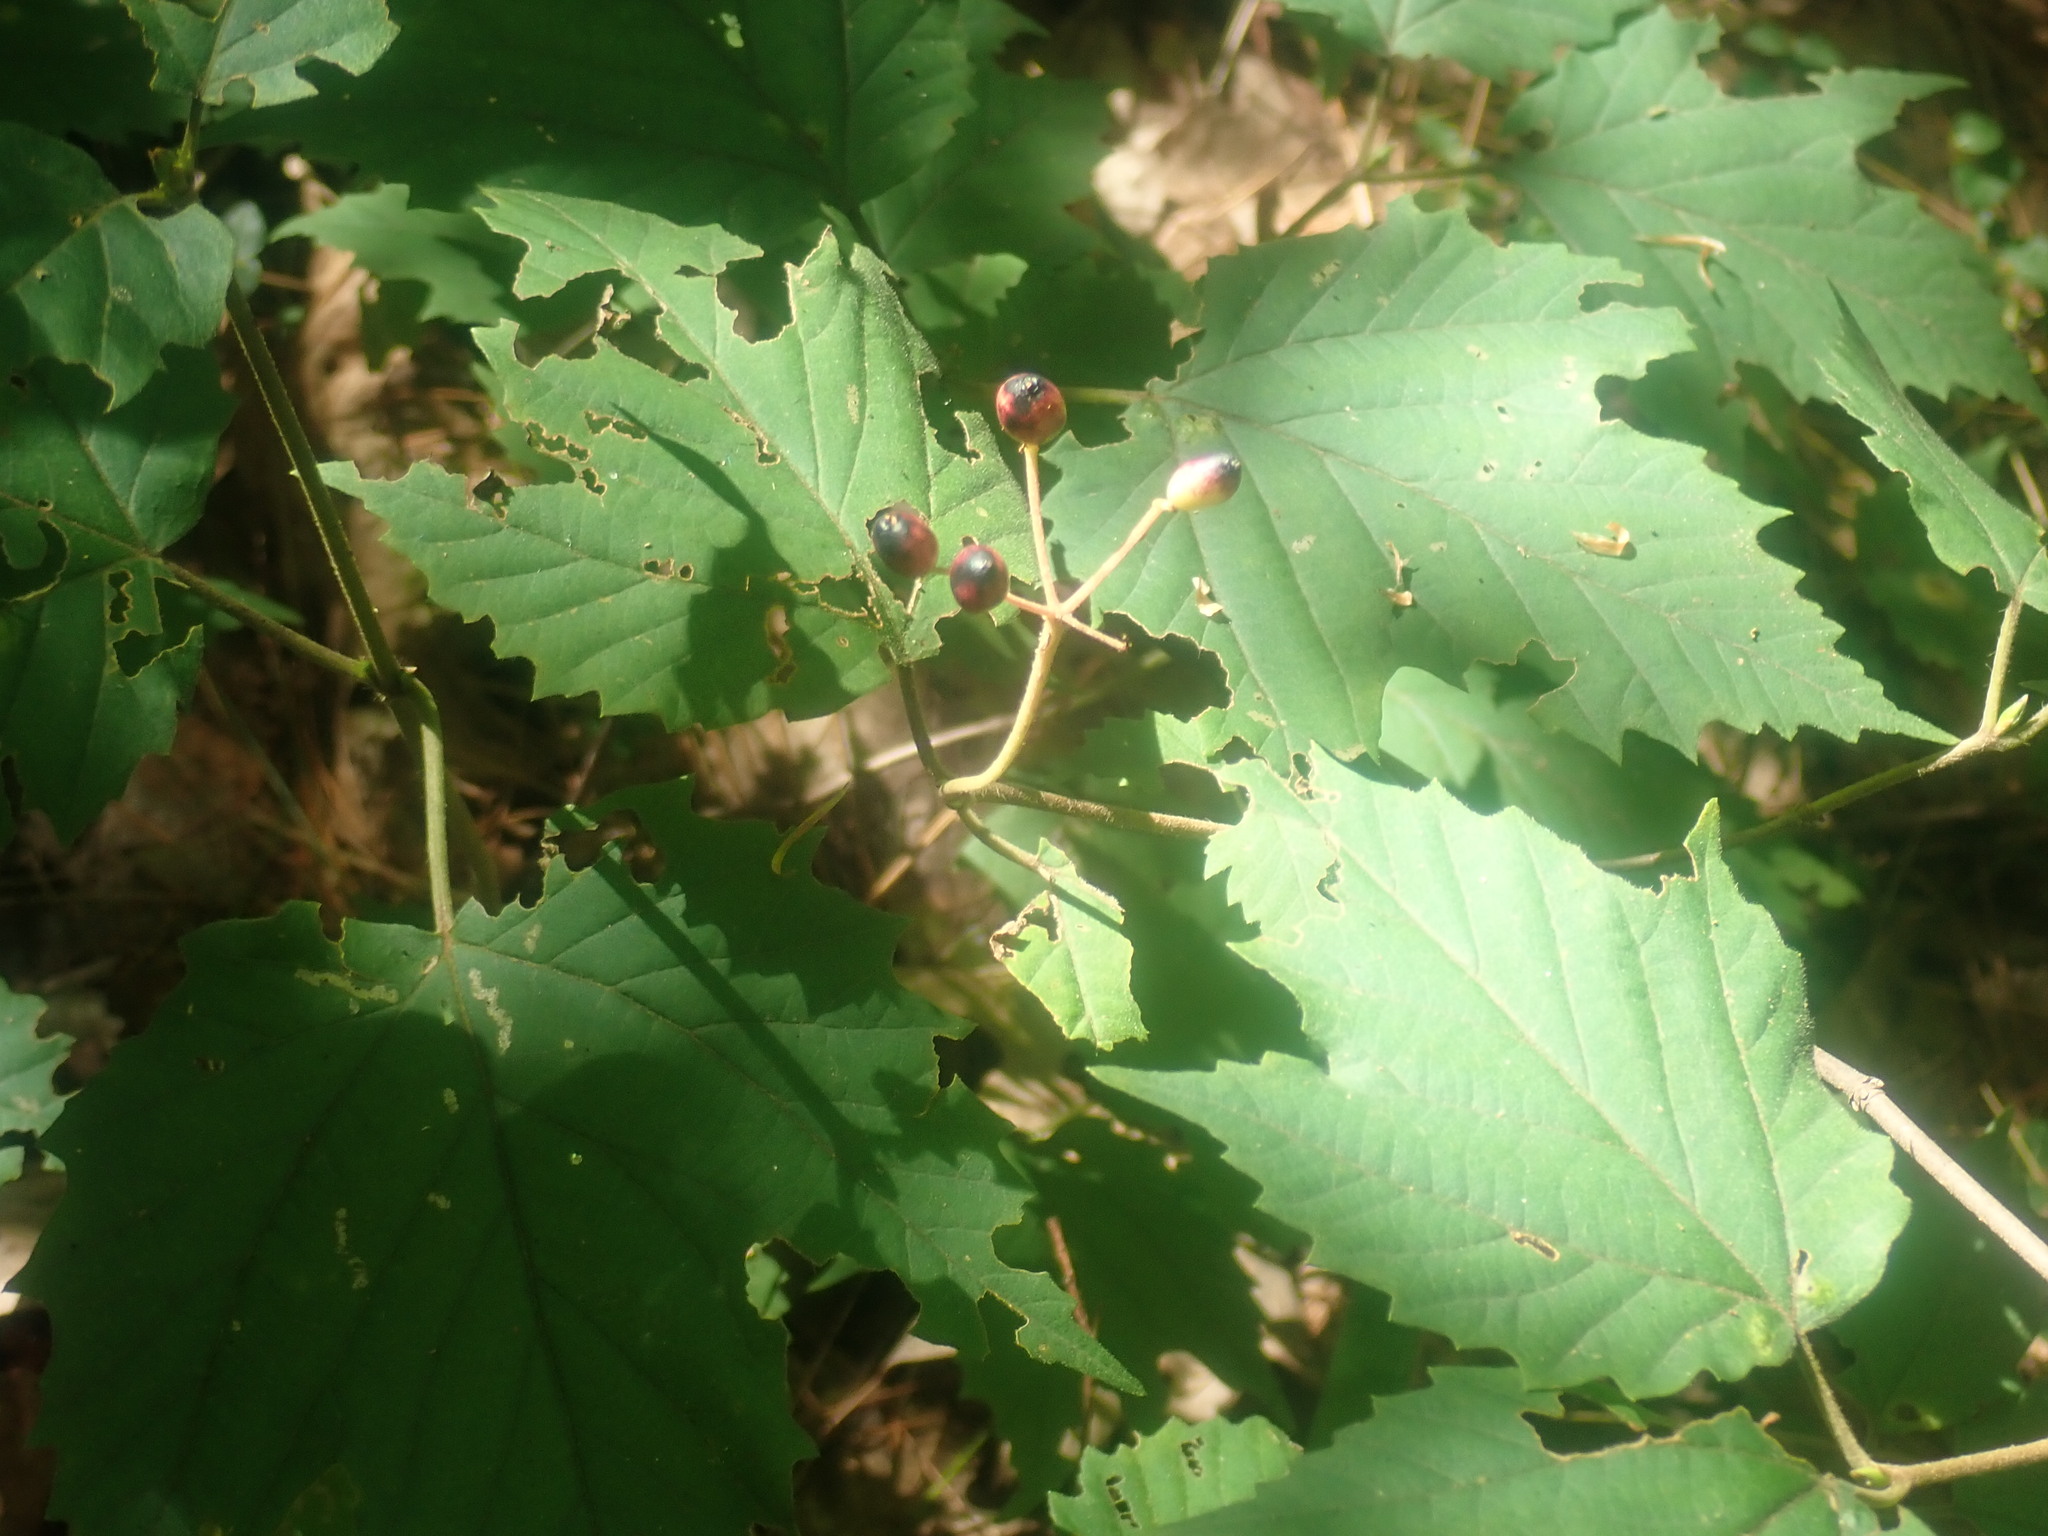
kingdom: Plantae
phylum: Tracheophyta
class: Magnoliopsida
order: Dipsacales
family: Viburnaceae
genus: Viburnum
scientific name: Viburnum acerifolium
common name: Dockmackie
